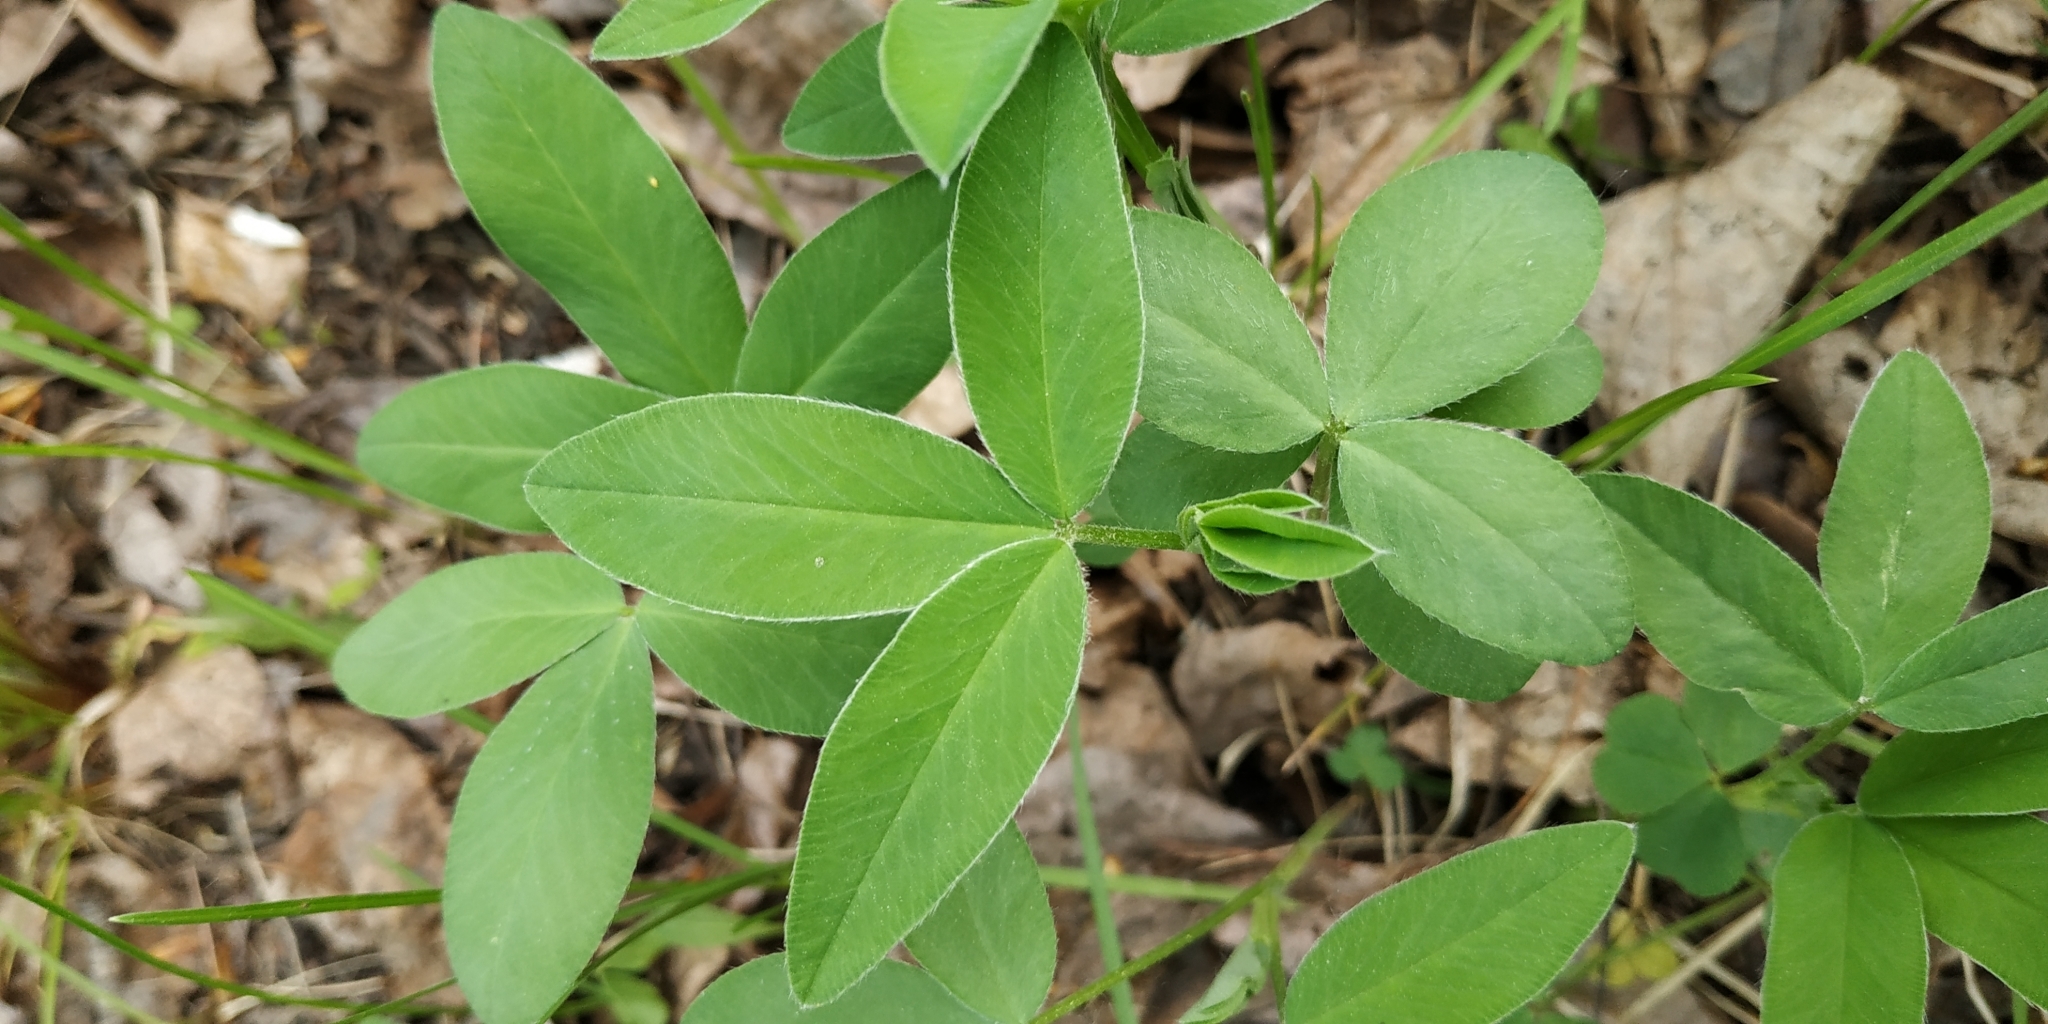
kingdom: Plantae
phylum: Tracheophyta
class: Magnoliopsida
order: Fabales
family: Fabaceae
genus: Trifolium
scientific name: Trifolium medium
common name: Zigzag clover
